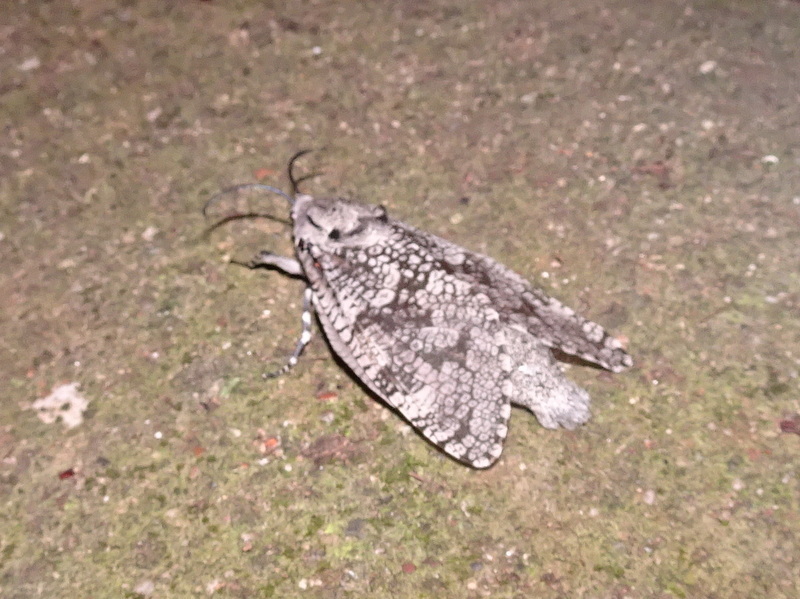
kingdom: Animalia
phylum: Arthropoda
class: Insecta
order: Lepidoptera
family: Cossidae
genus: Prionoxystus
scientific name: Prionoxystus robiniae
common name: Carpenterworm
